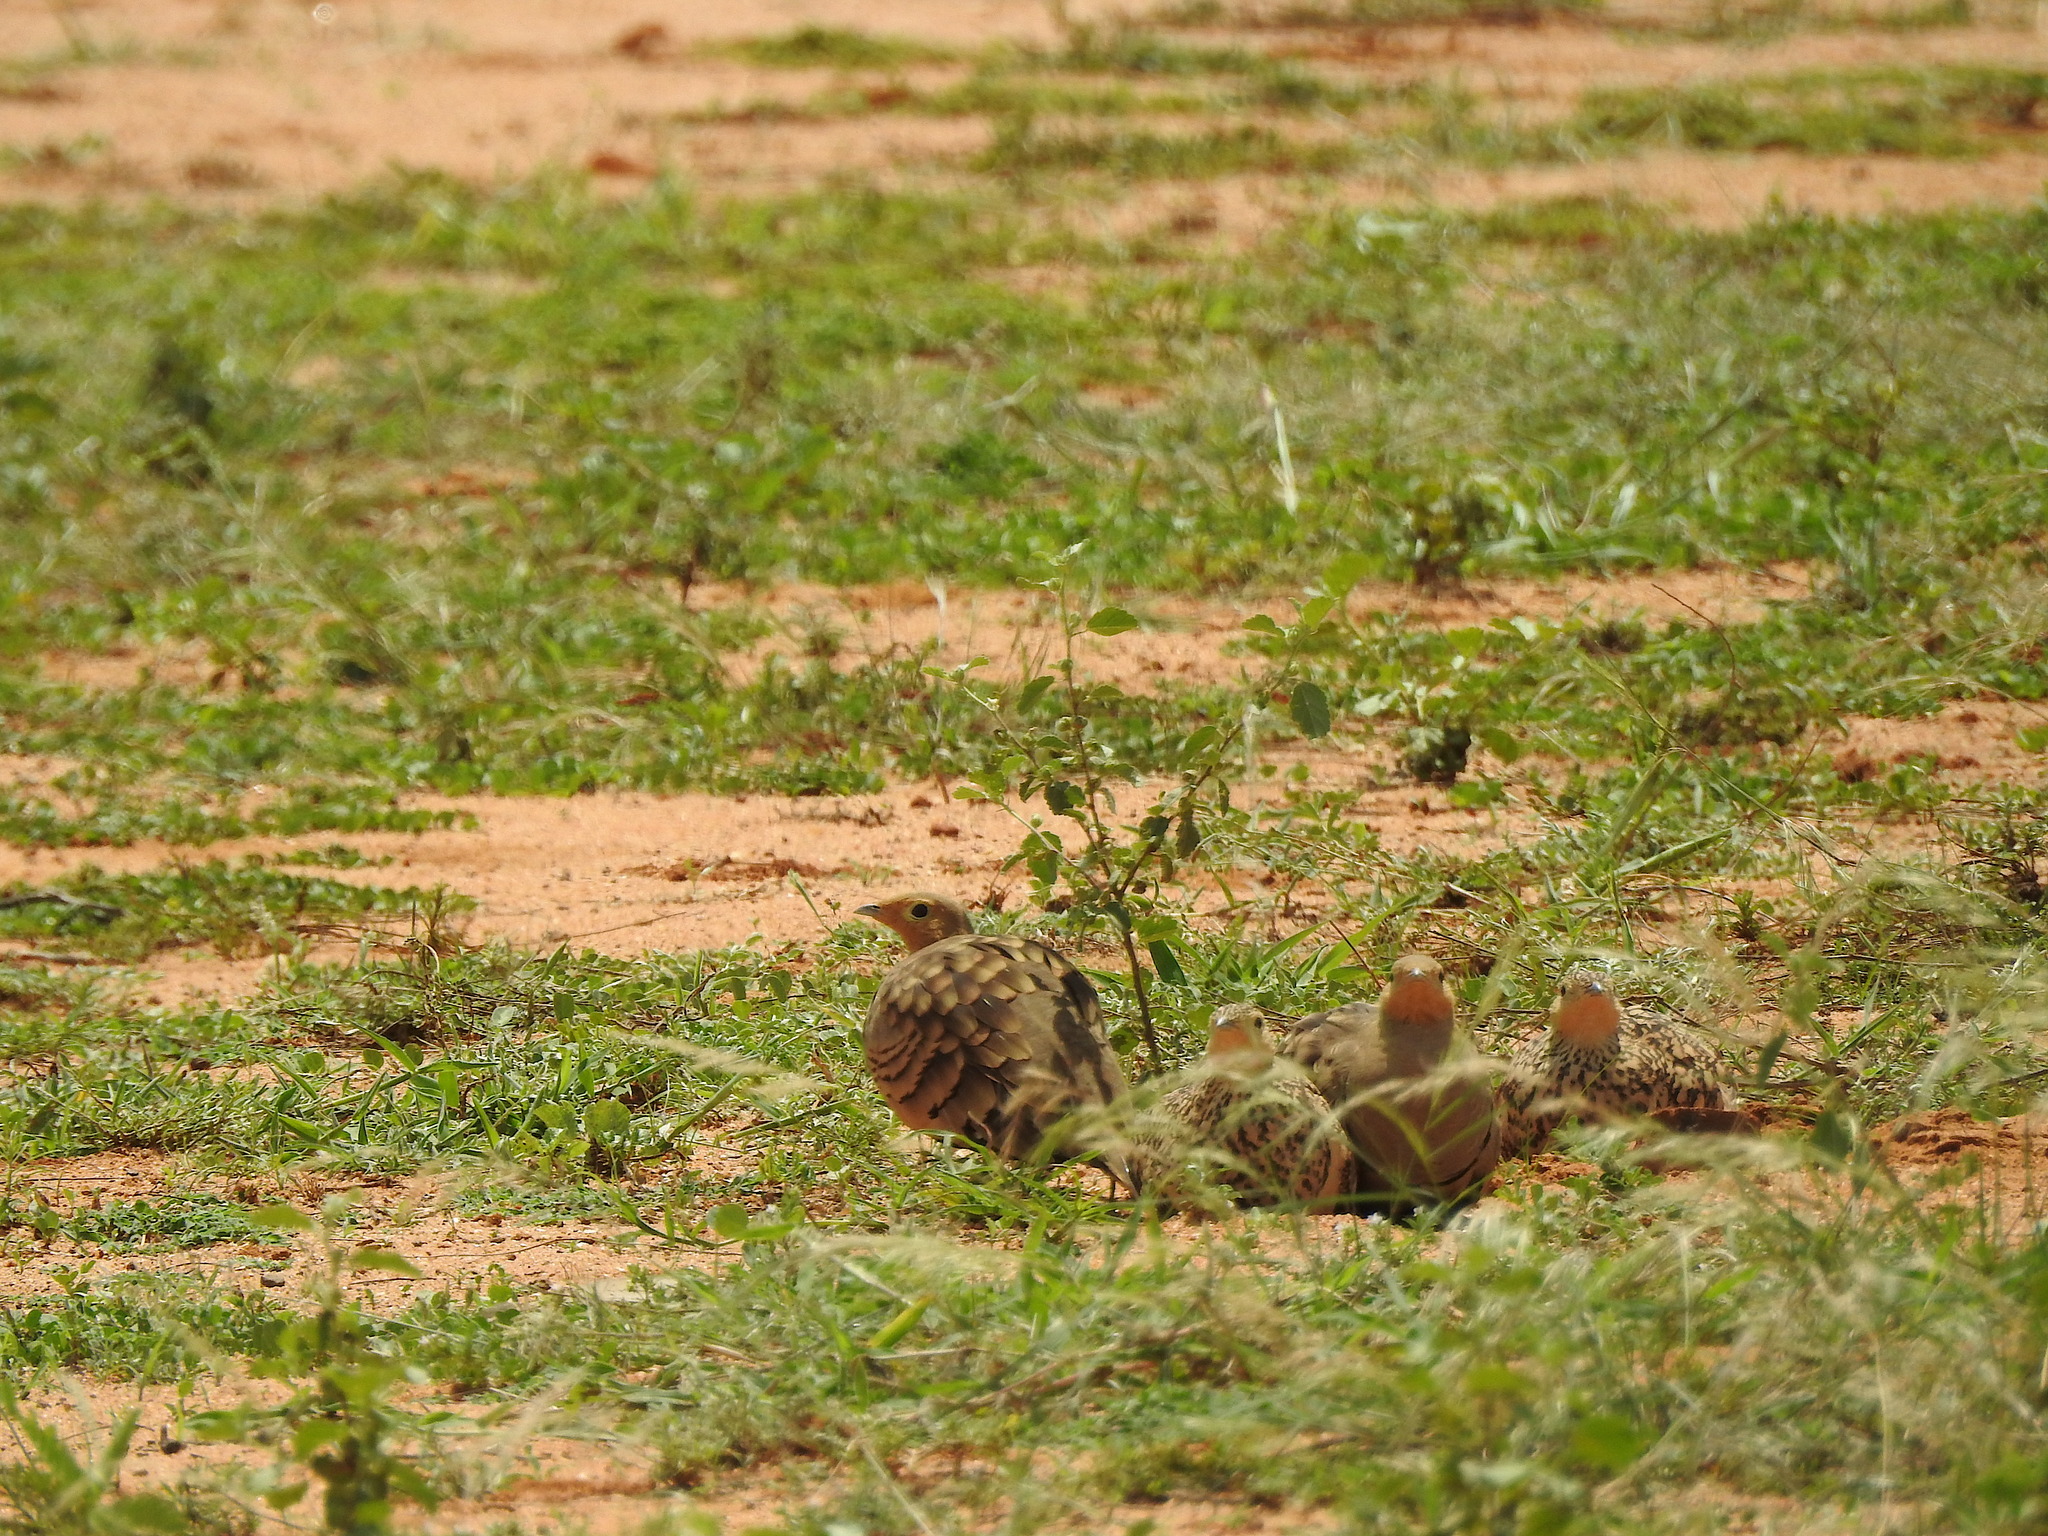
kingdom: Animalia
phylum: Chordata
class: Aves
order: Pteroclidiformes
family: Pteroclididae
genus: Pterocles
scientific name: Pterocles exustus
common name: Chestnut-bellied sandgrouse
